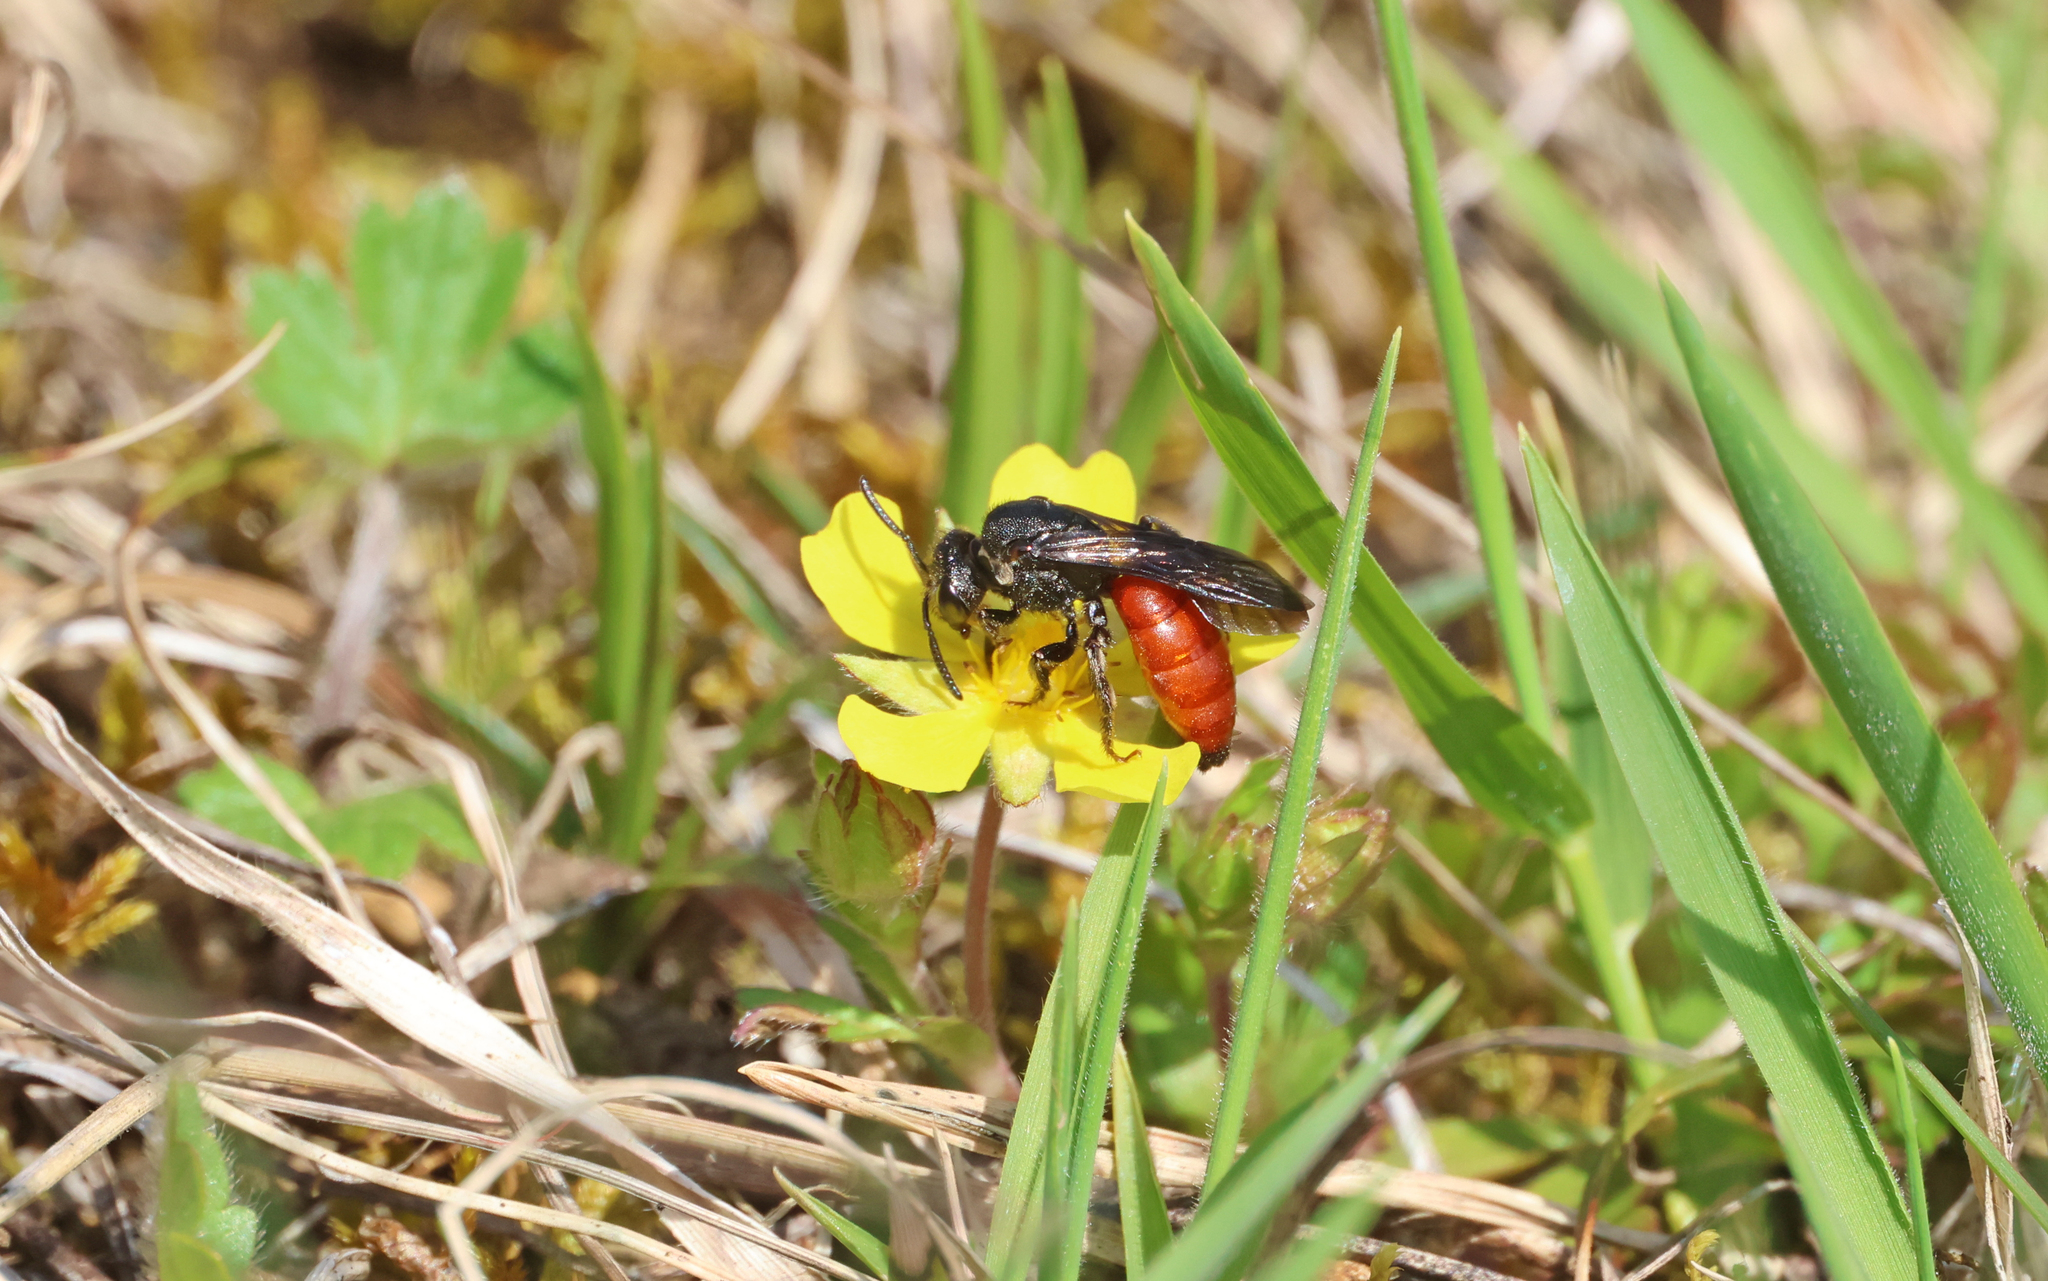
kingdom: Animalia
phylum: Arthropoda
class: Insecta
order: Hymenoptera
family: Halictidae
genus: Sphecodes
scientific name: Sphecodes albilabris
